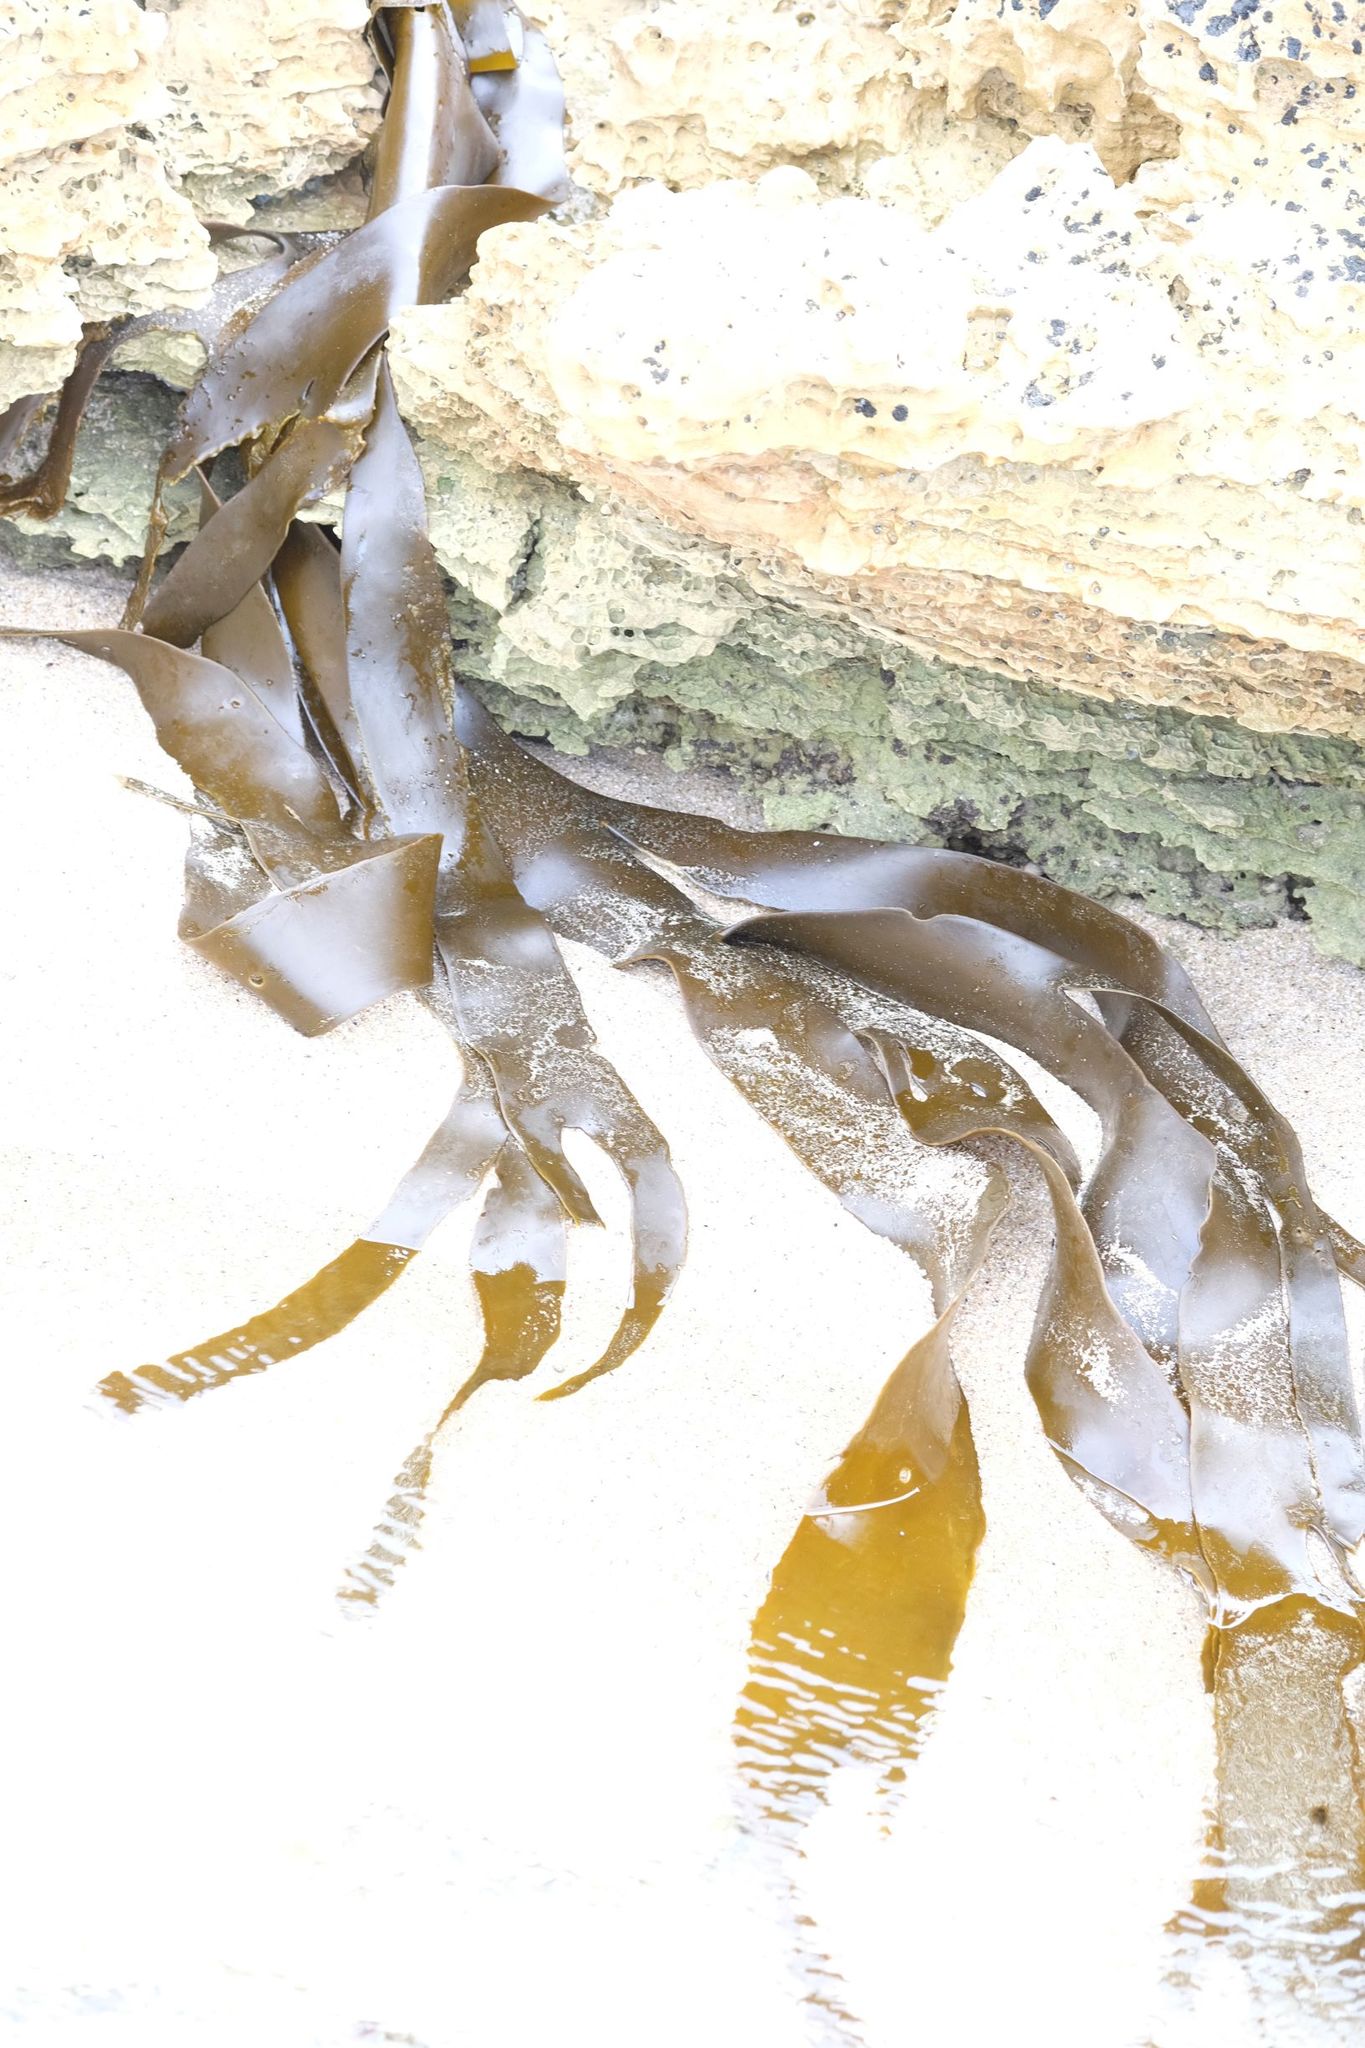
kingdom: Chromista
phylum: Ochrophyta
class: Phaeophyceae
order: Fucales
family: Durvillaeaceae
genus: Durvillaea
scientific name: Durvillaea
